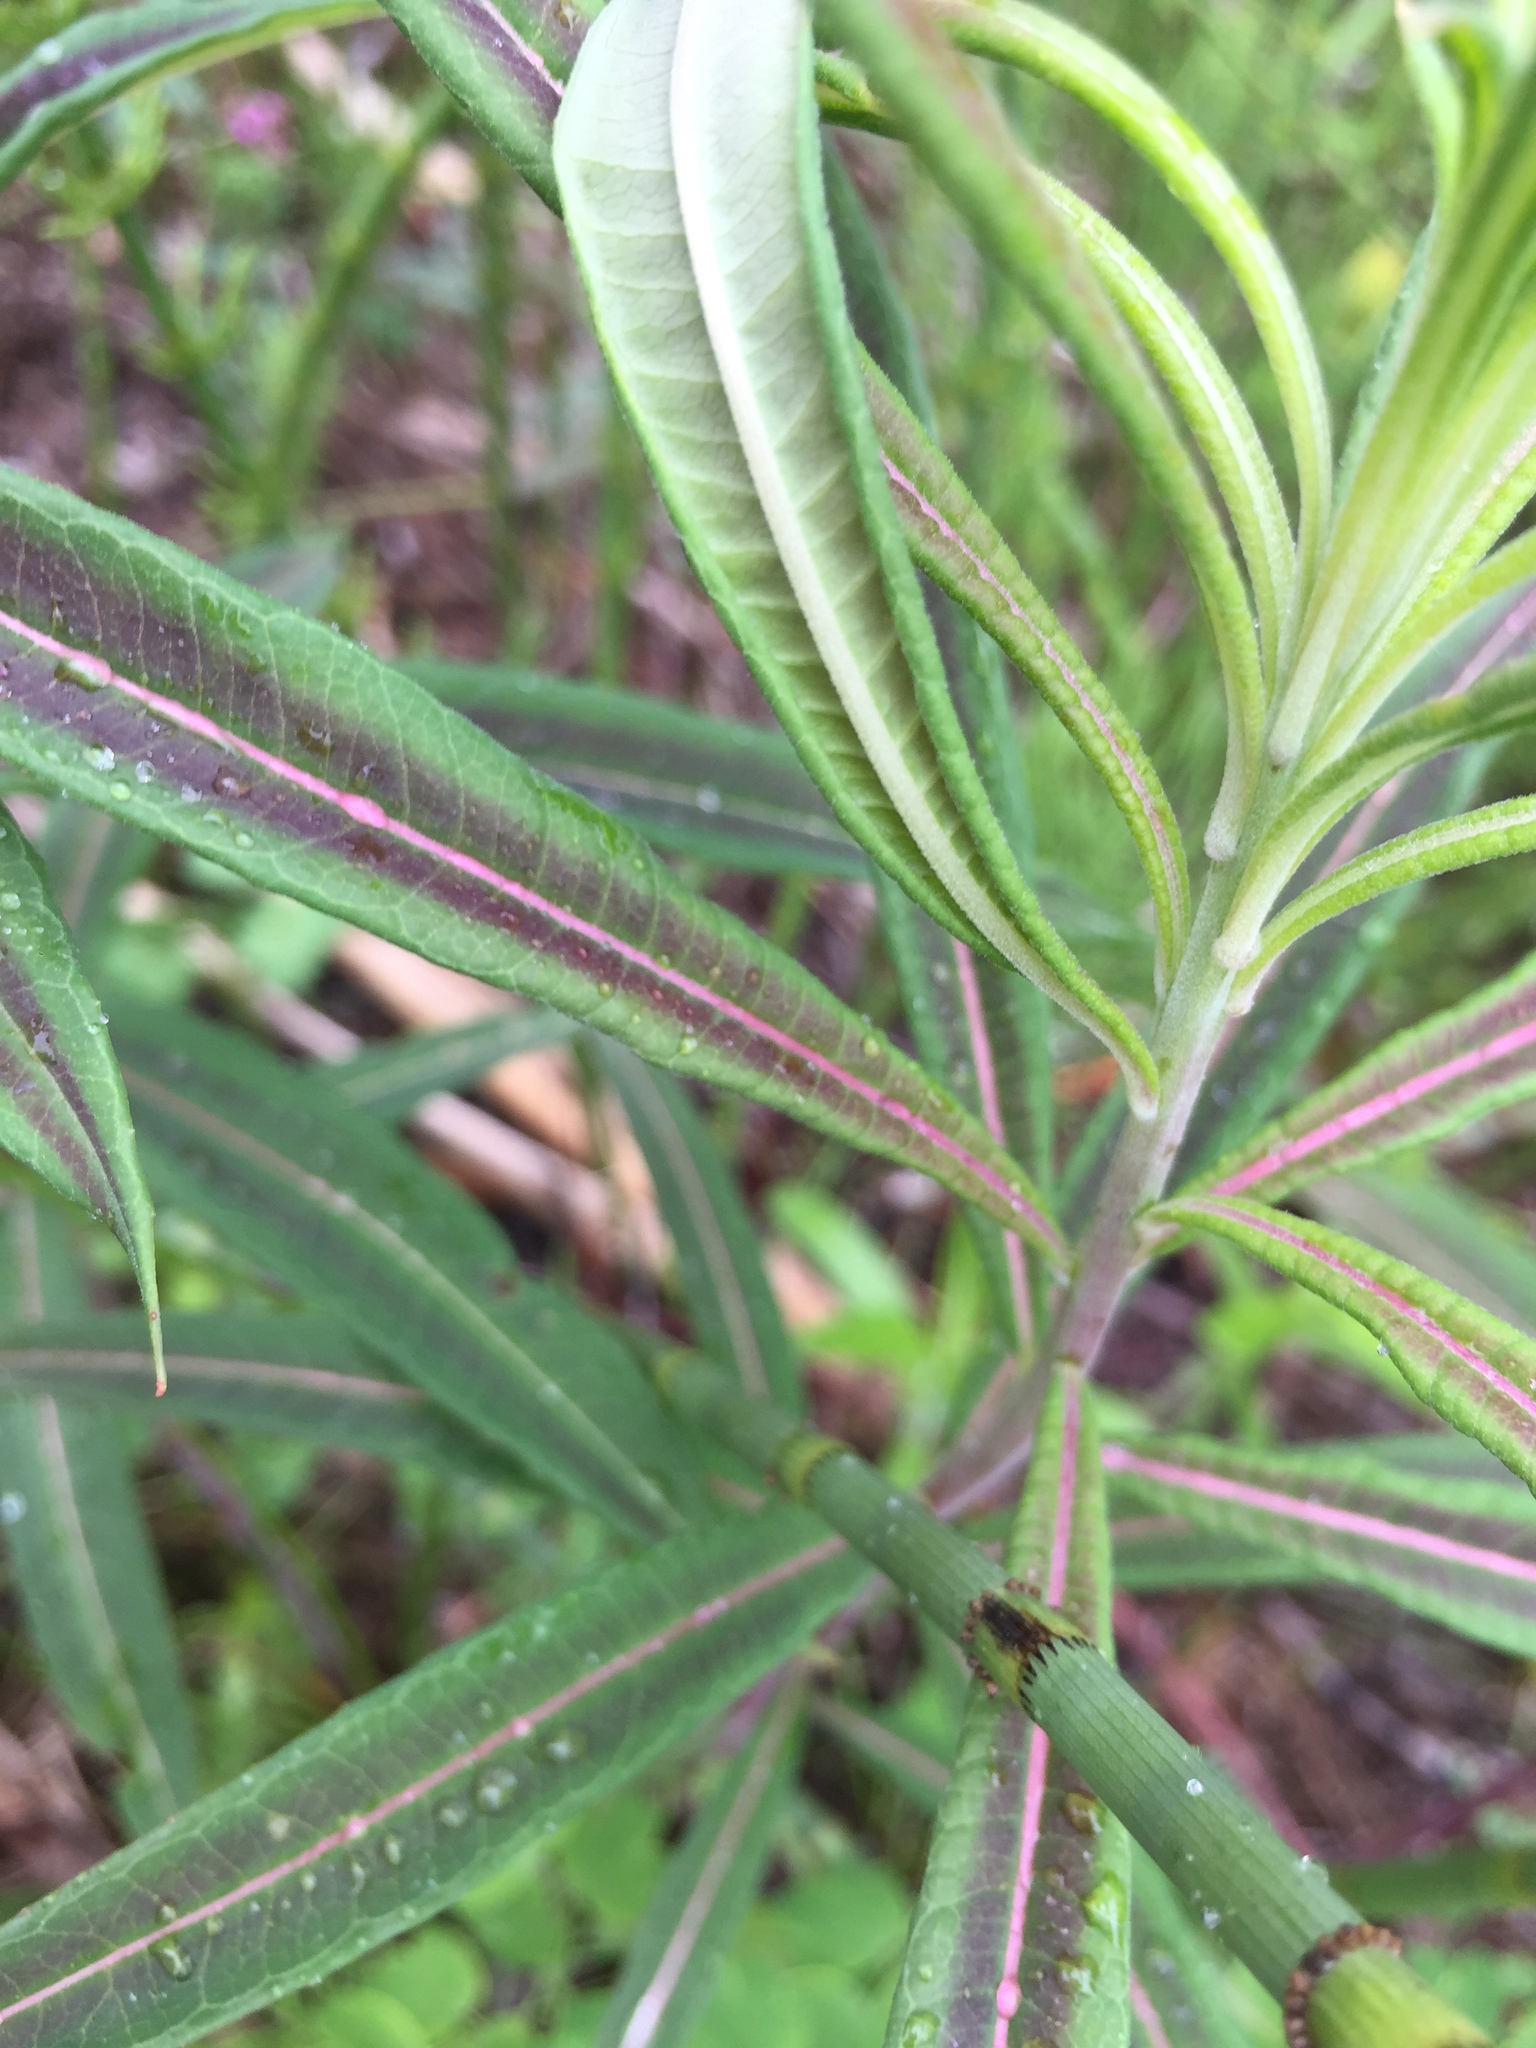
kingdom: Plantae
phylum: Tracheophyta
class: Magnoliopsida
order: Myrtales
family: Onagraceae
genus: Chamaenerion
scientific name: Chamaenerion angustifolium
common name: Fireweed
